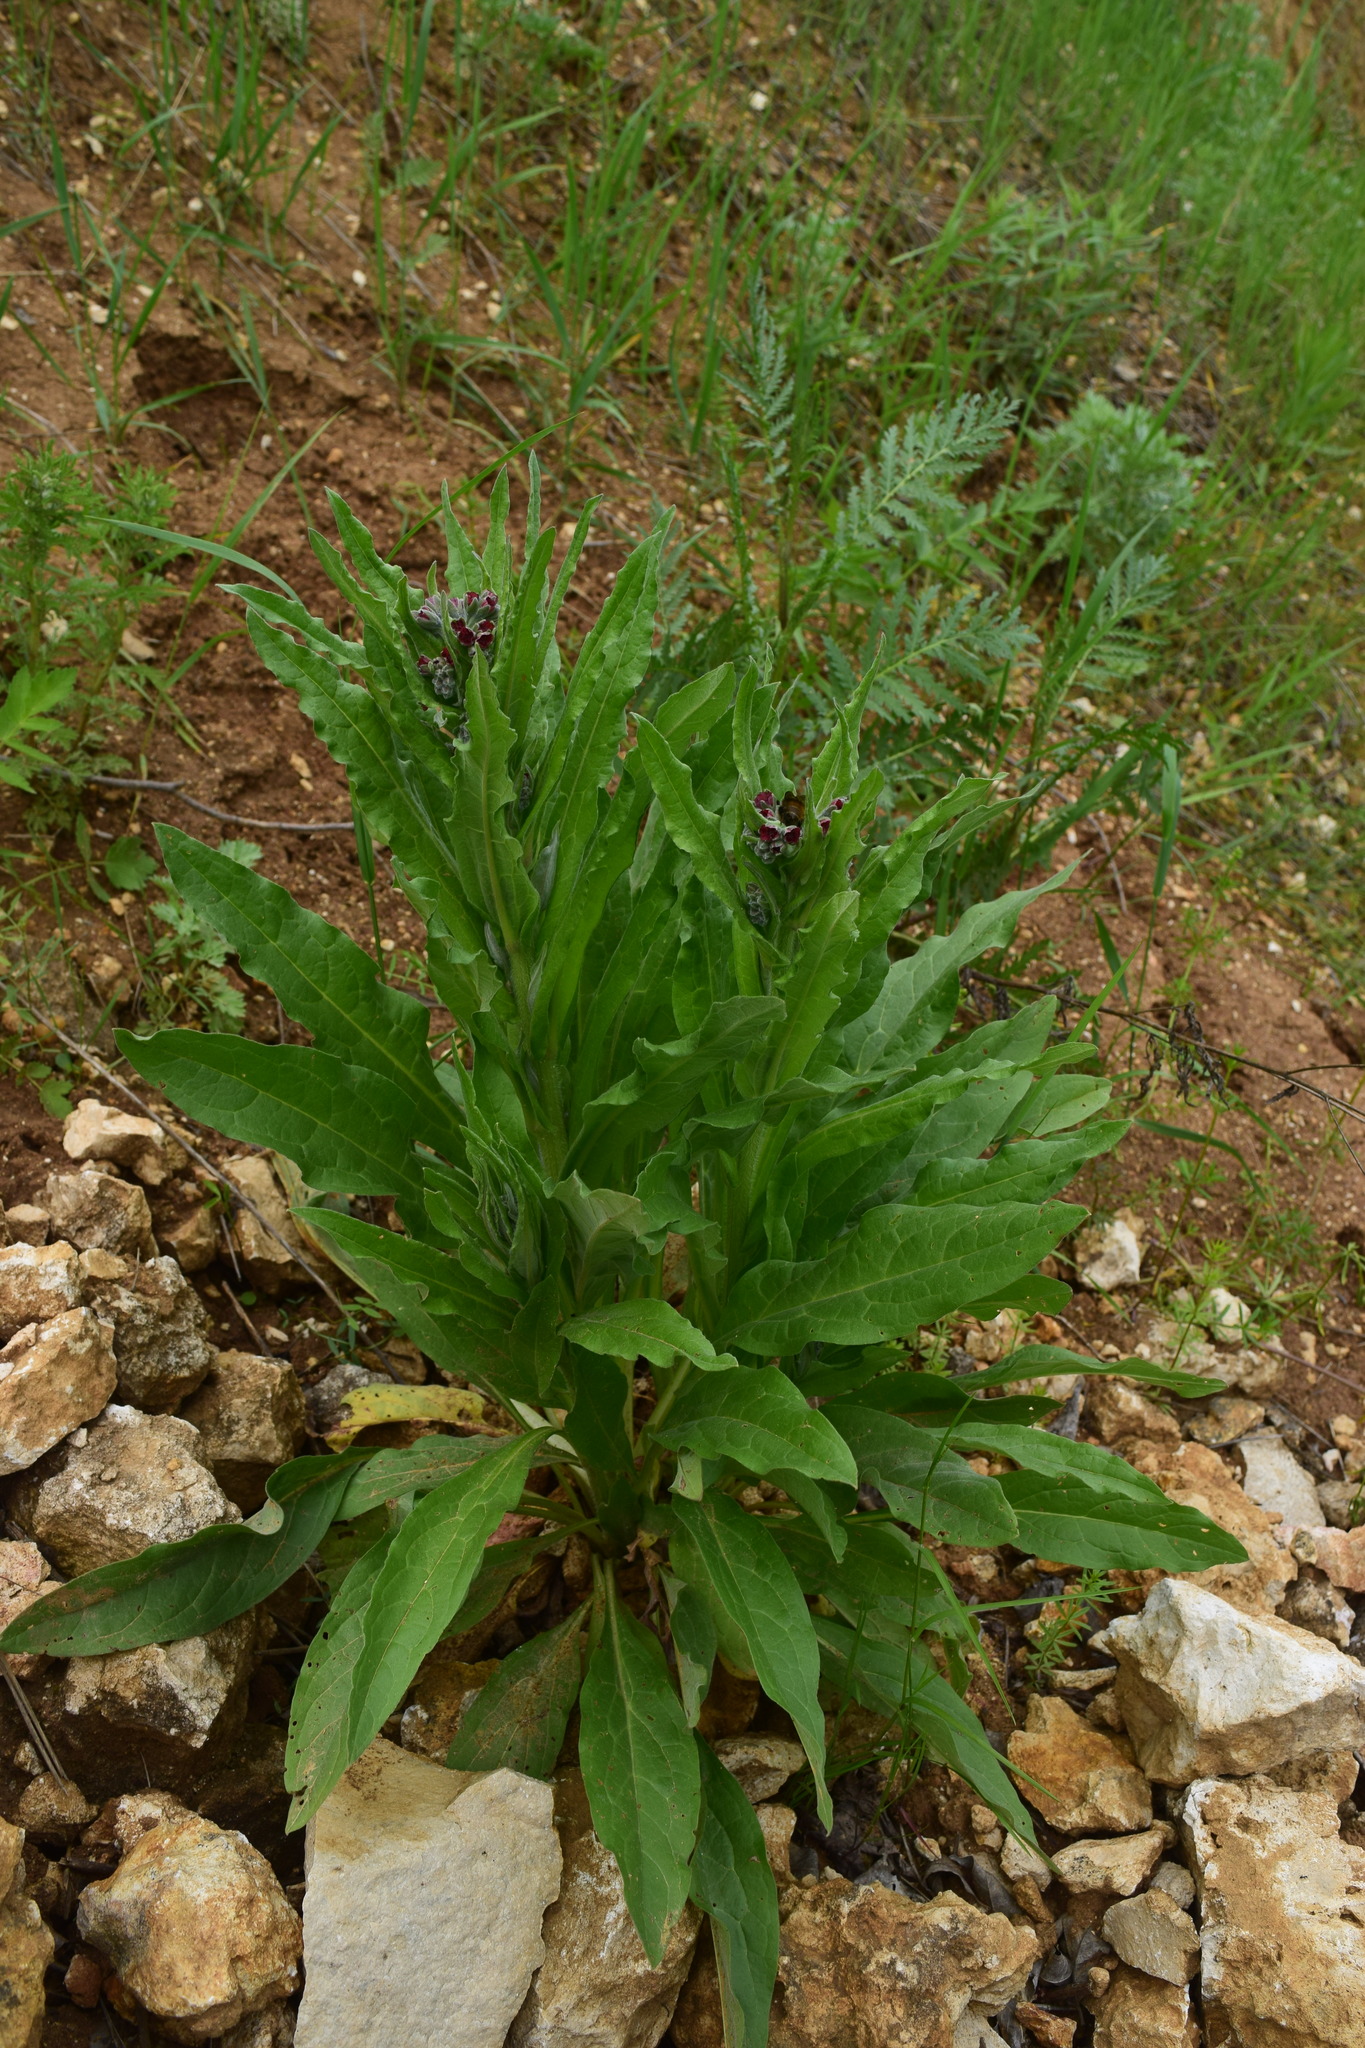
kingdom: Plantae
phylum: Tracheophyta
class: Magnoliopsida
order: Boraginales
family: Boraginaceae
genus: Cynoglossum
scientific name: Cynoglossum officinale
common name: Hound's-tongue
